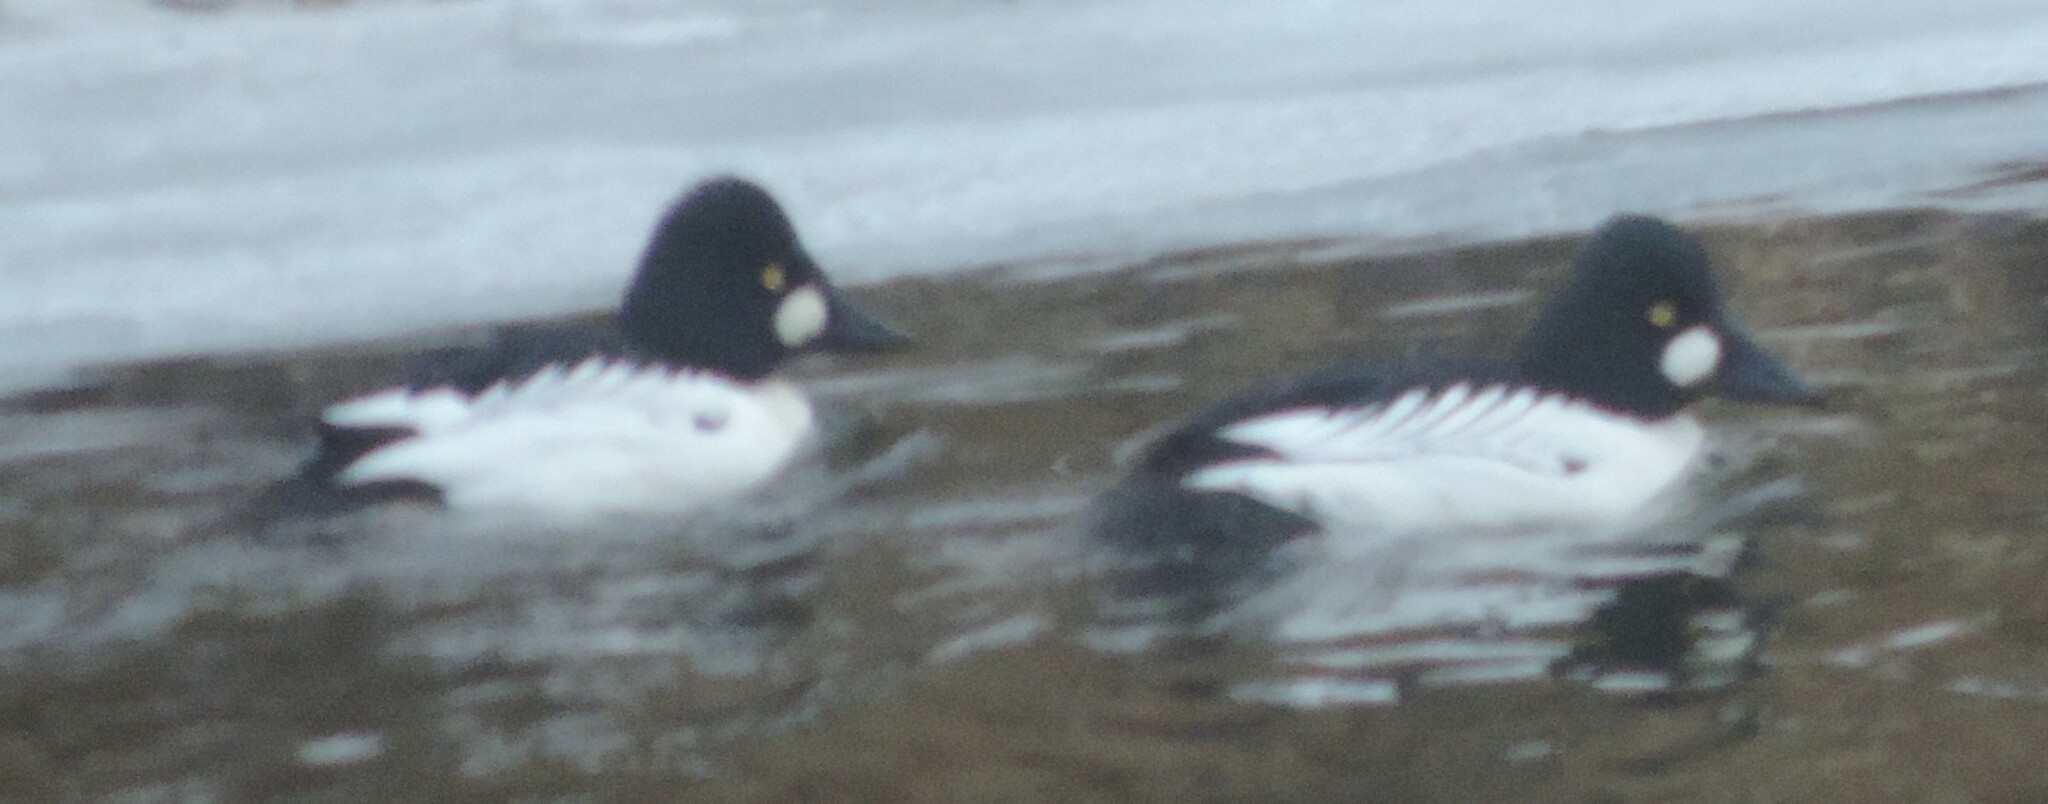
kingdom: Animalia
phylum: Chordata
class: Aves
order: Anseriformes
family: Anatidae
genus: Bucephala
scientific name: Bucephala clangula
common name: Common goldeneye
